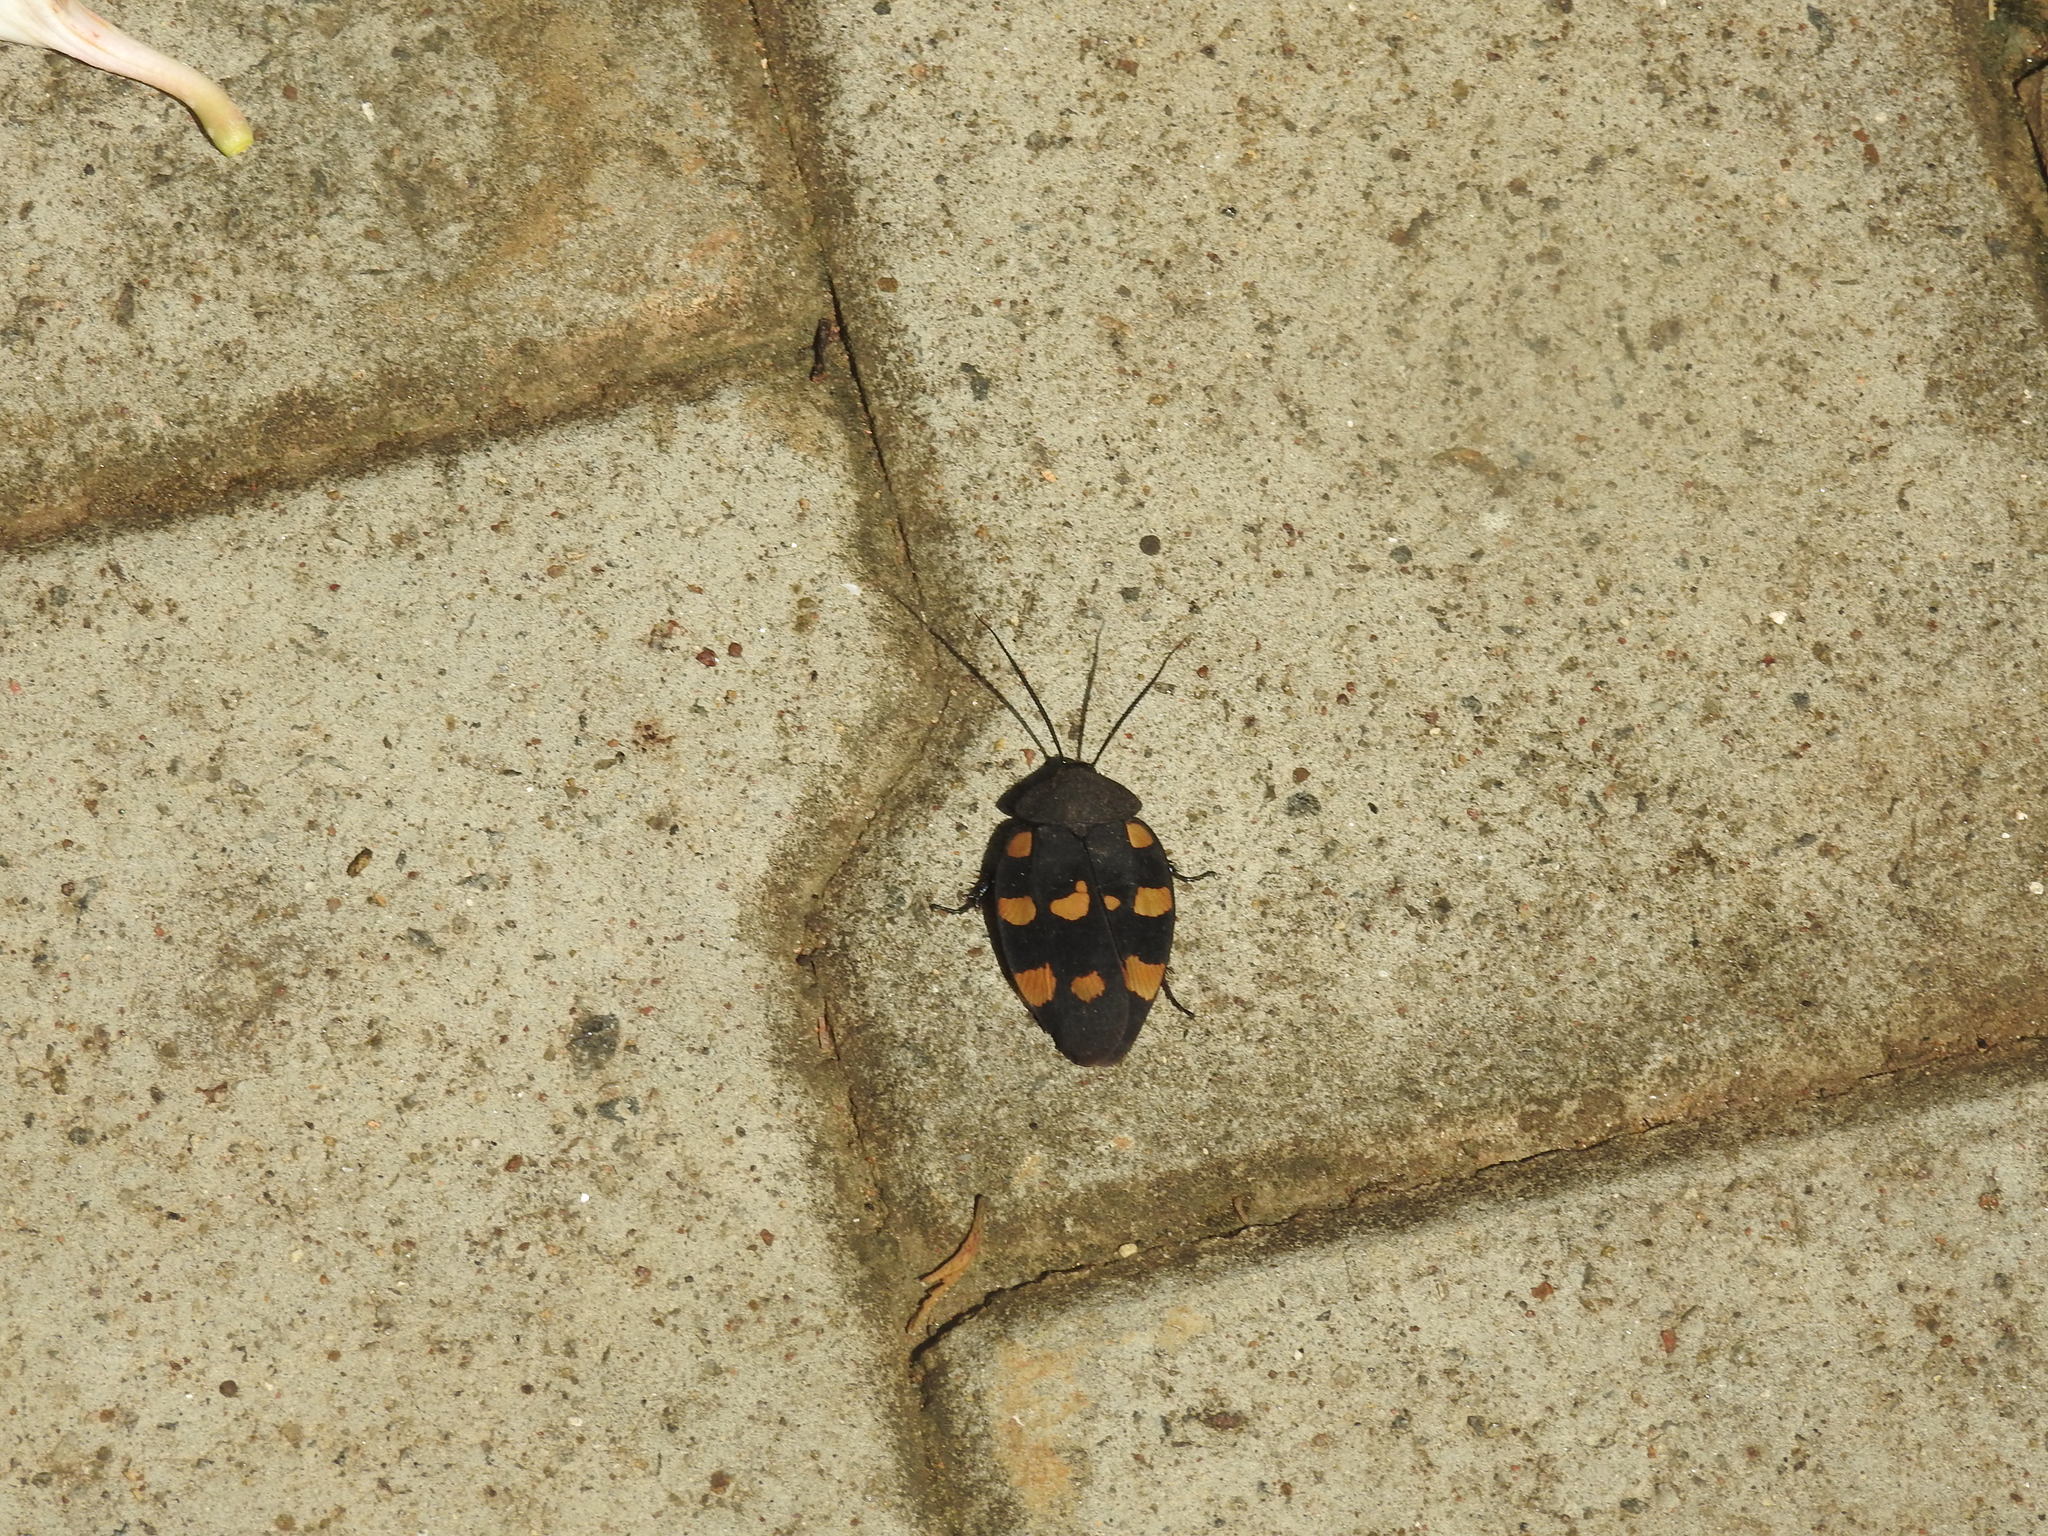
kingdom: Animalia
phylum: Arthropoda
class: Insecta
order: Blattodea
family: Corydiidae
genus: Therea
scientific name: Therea nuptialis
